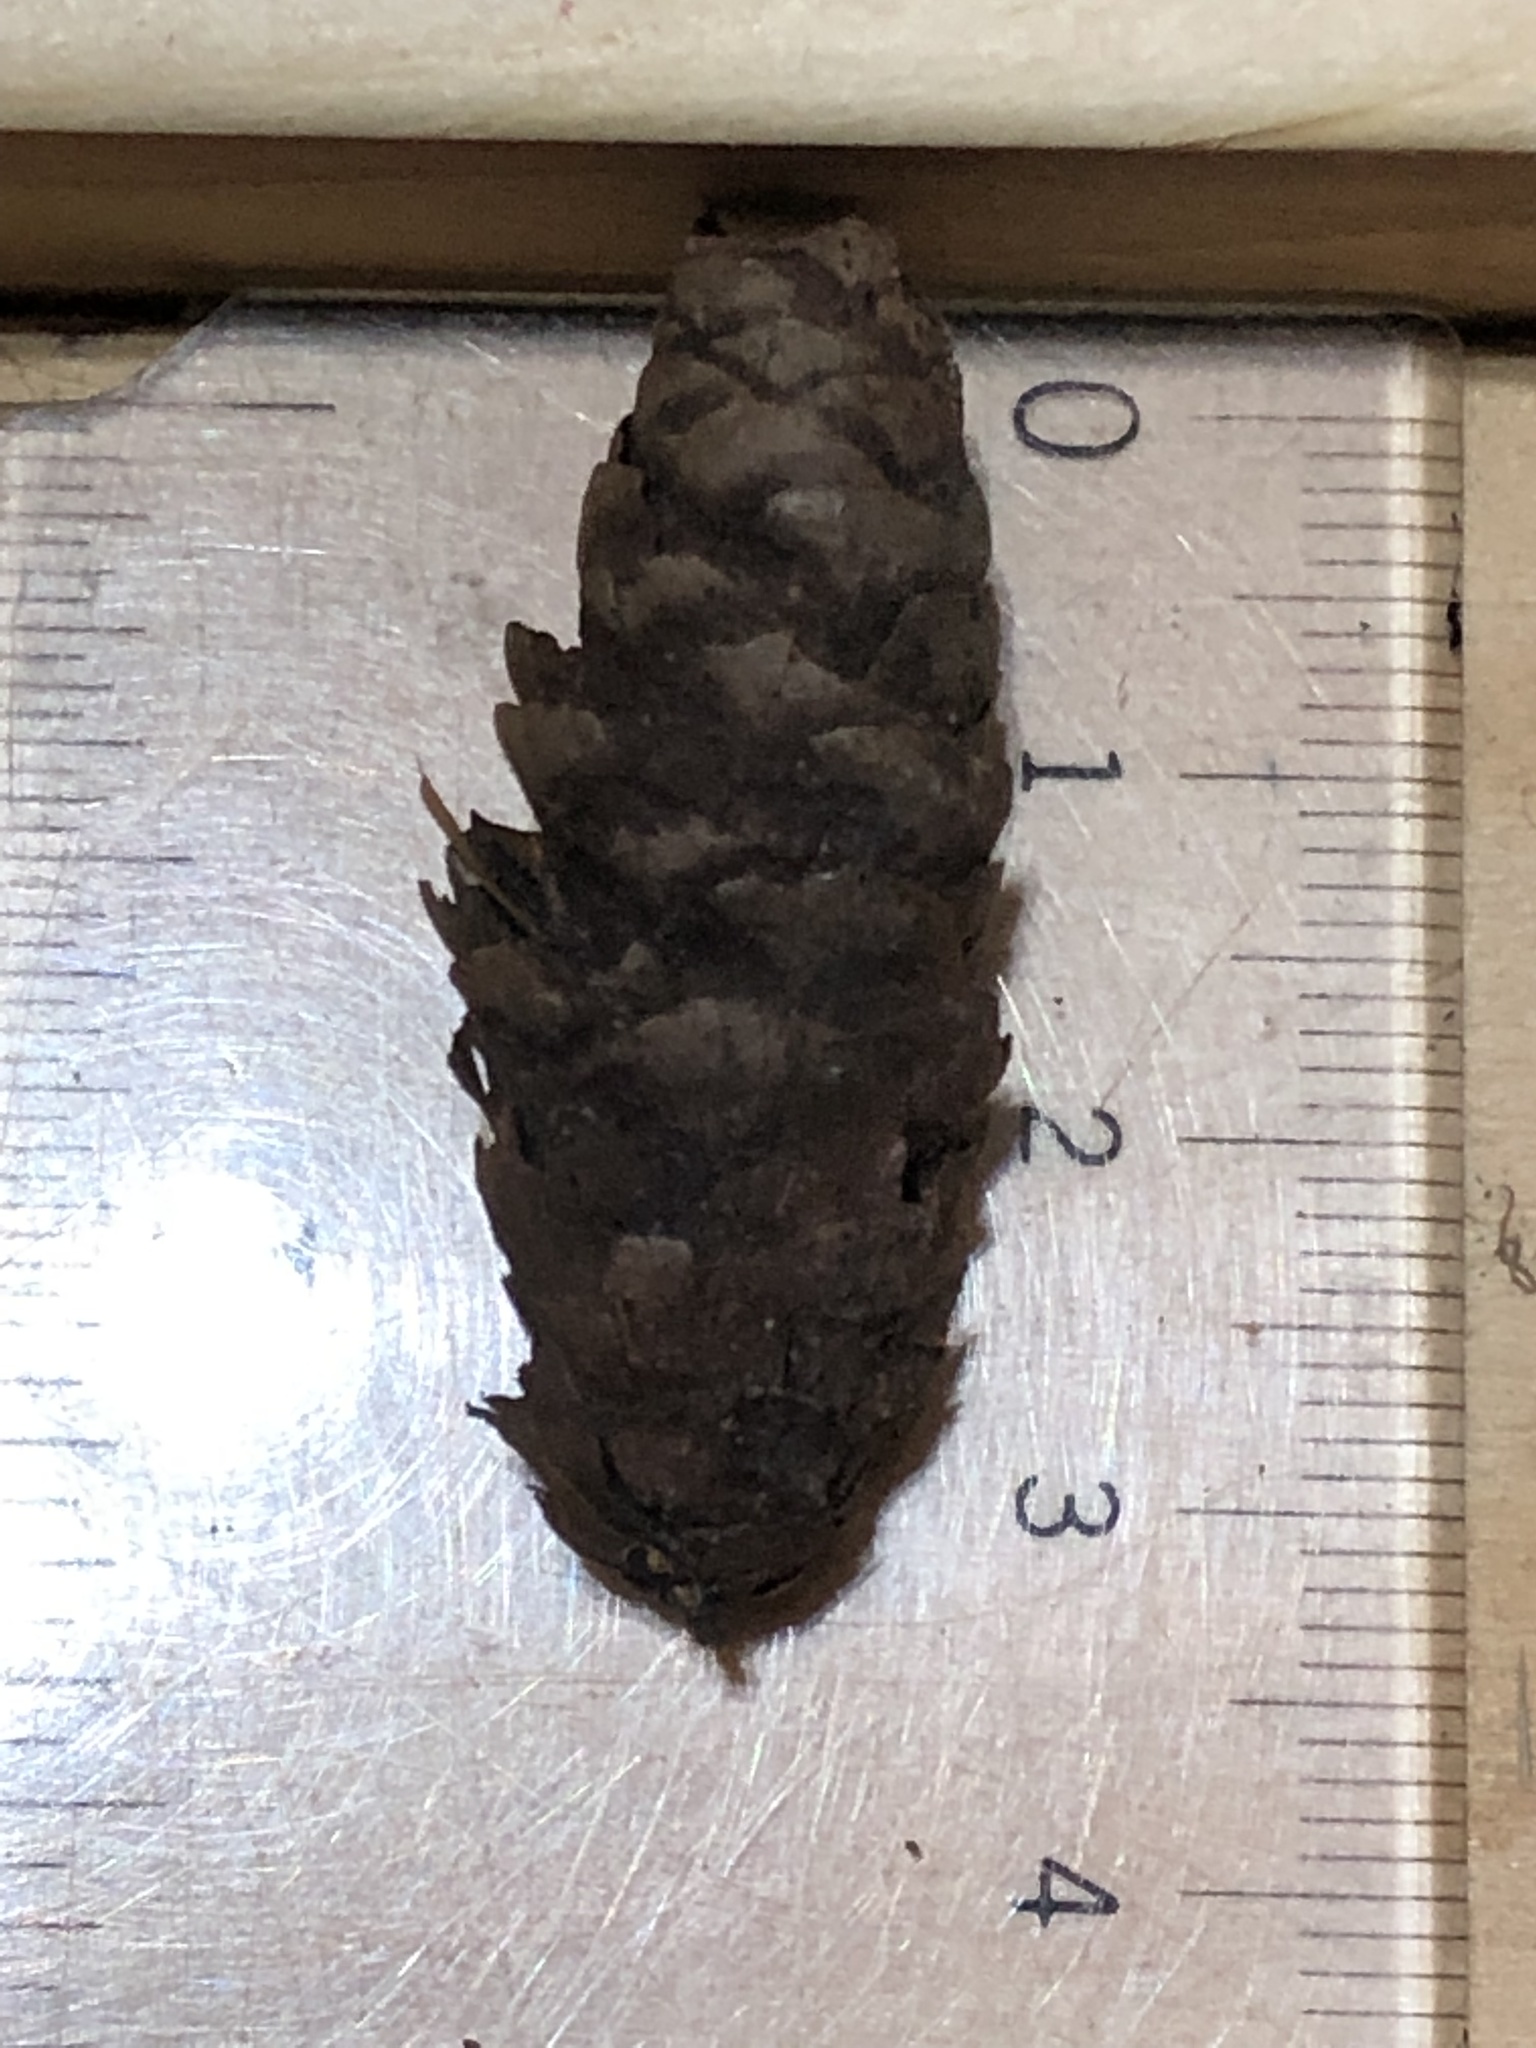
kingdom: Plantae
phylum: Tracheophyta
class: Pinopsida
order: Pinales
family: Pinaceae
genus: Picea
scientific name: Picea glauca
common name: White spruce
